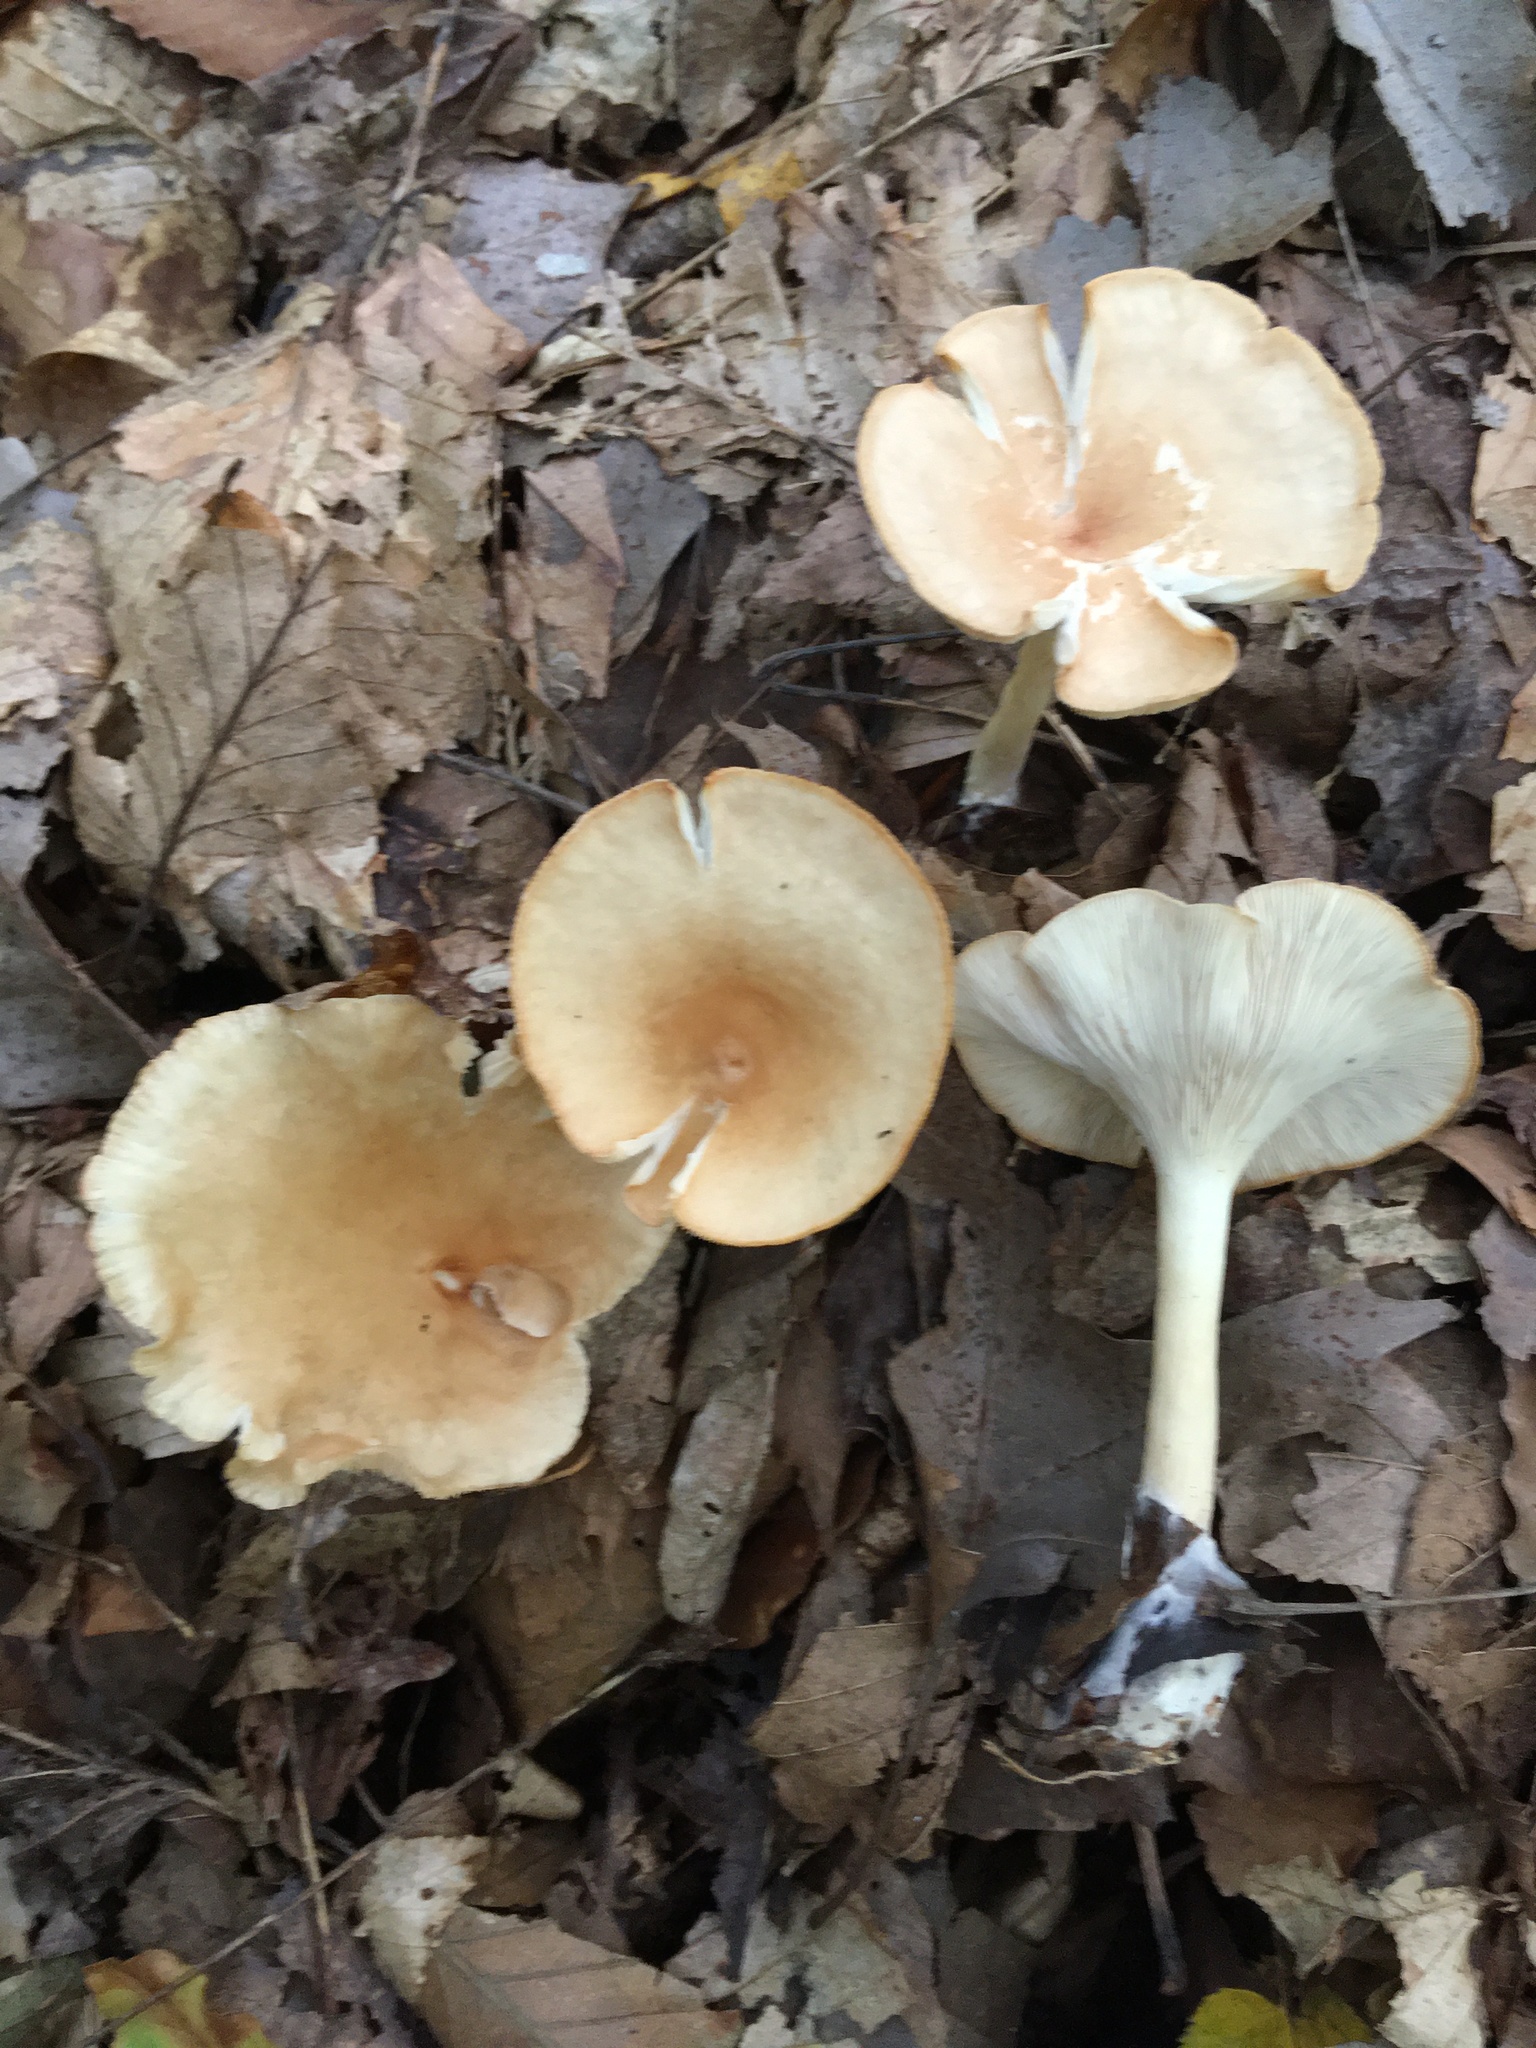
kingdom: Fungi
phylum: Basidiomycota
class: Agaricomycetes
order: Agaricales
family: Tricholomataceae
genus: Infundibulicybe
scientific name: Infundibulicybe gibba
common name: Common funnel
